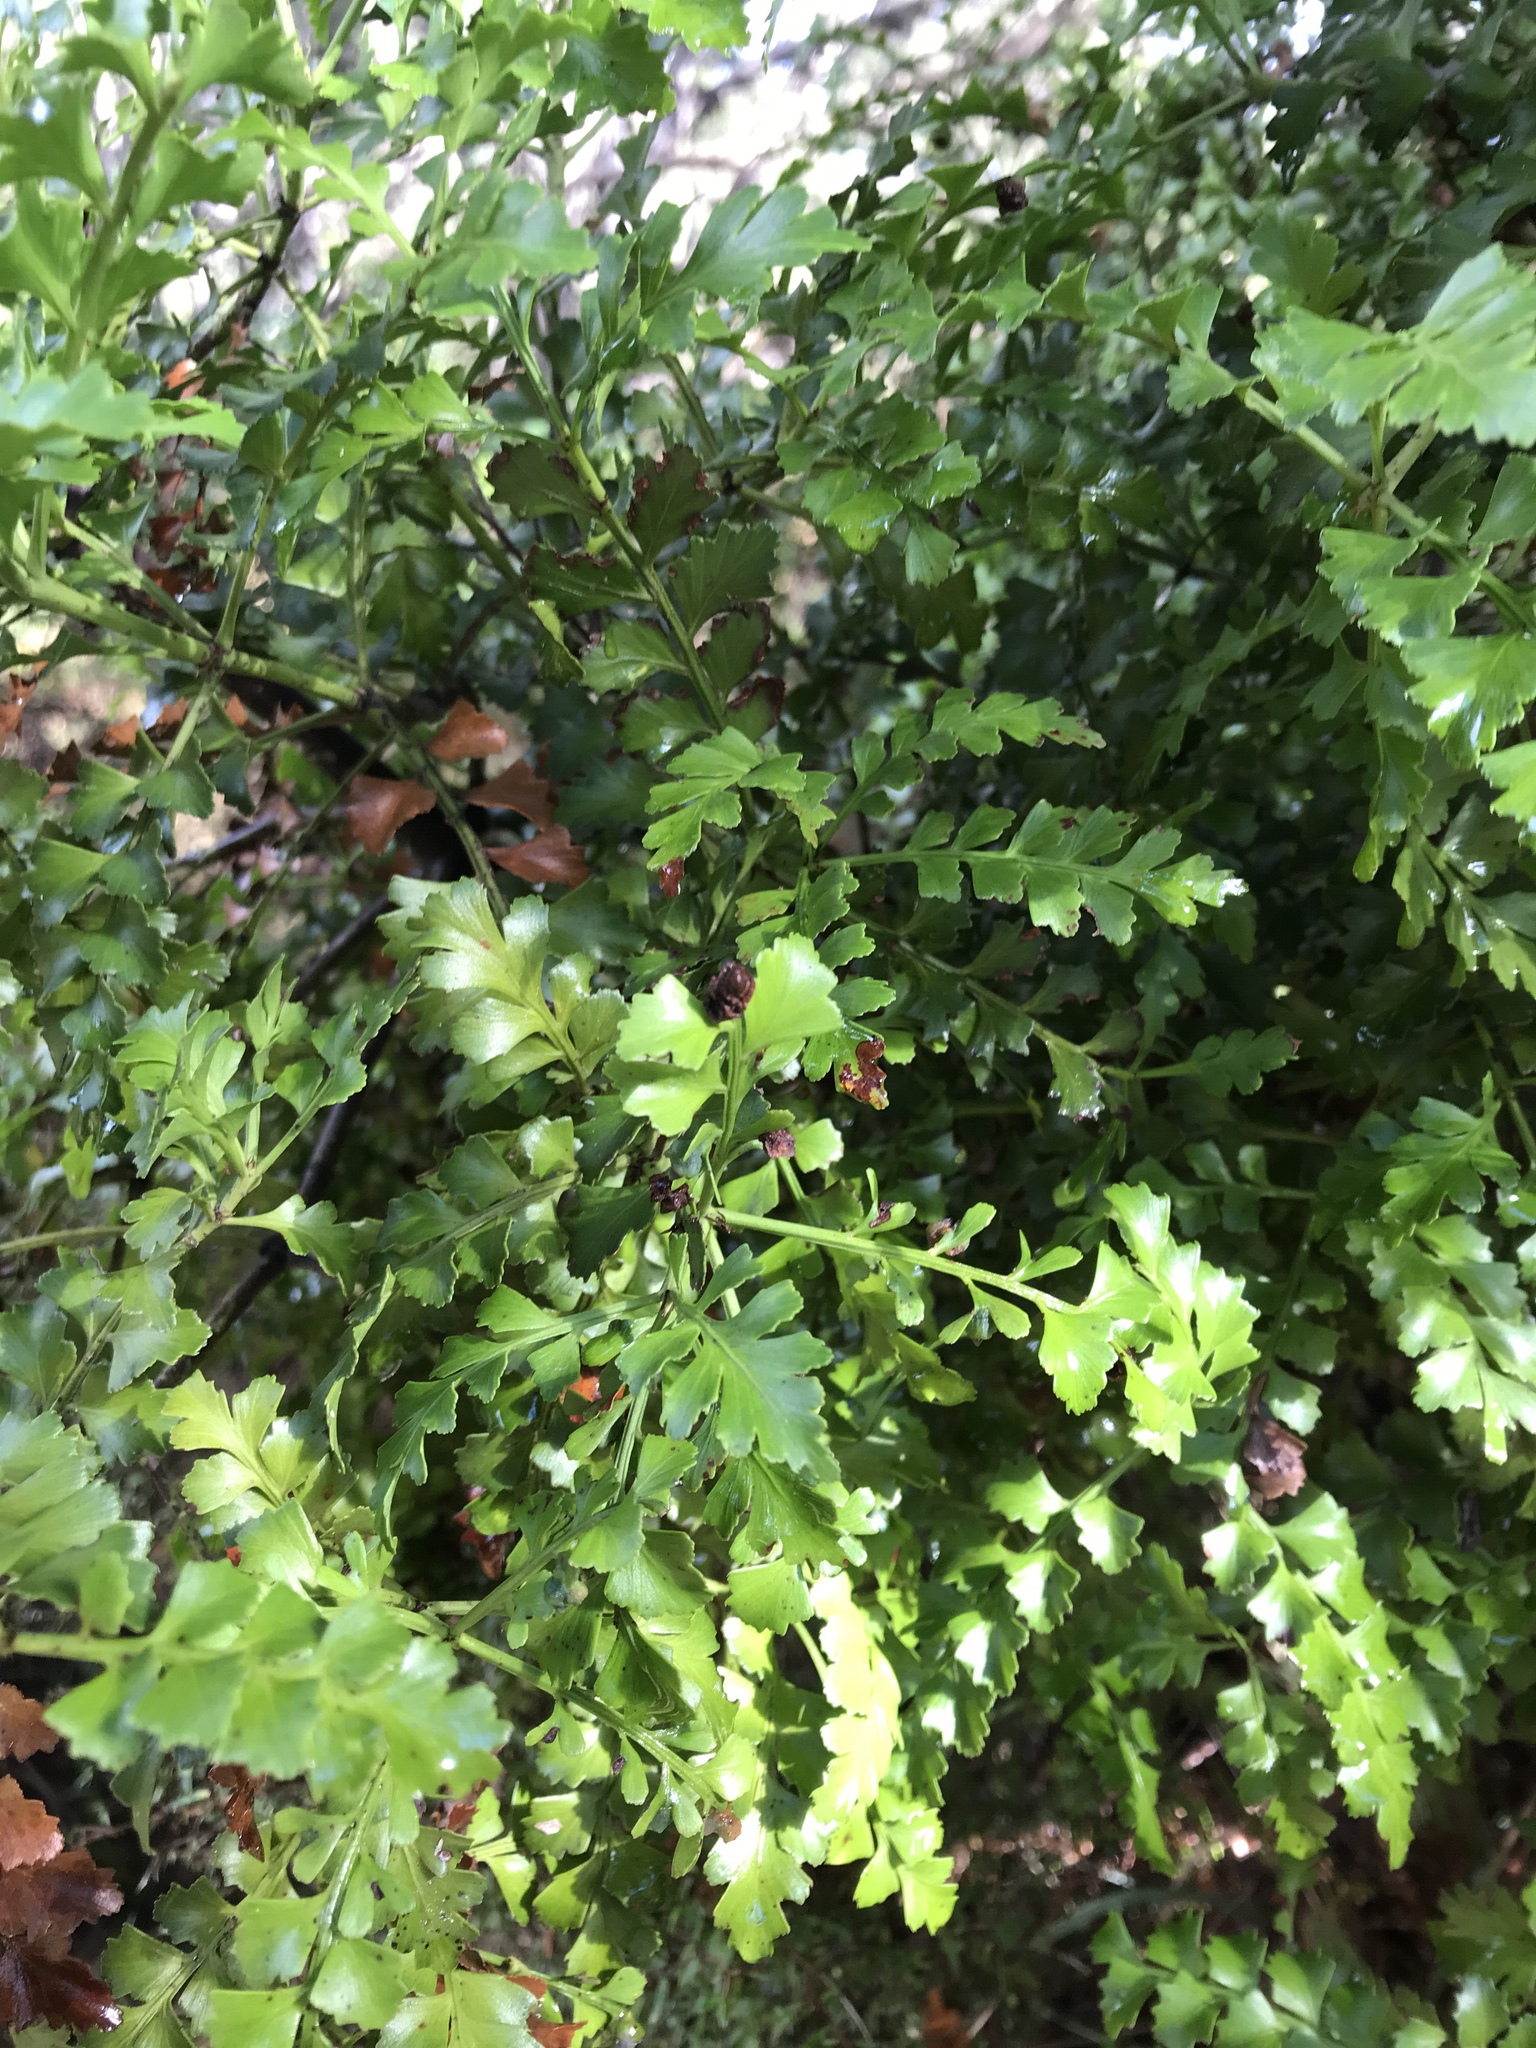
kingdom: Plantae
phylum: Tracheophyta
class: Pinopsida
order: Pinales
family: Phyllocladaceae
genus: Phyllocladus
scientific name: Phyllocladus trichomanoides
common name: Celery pine
